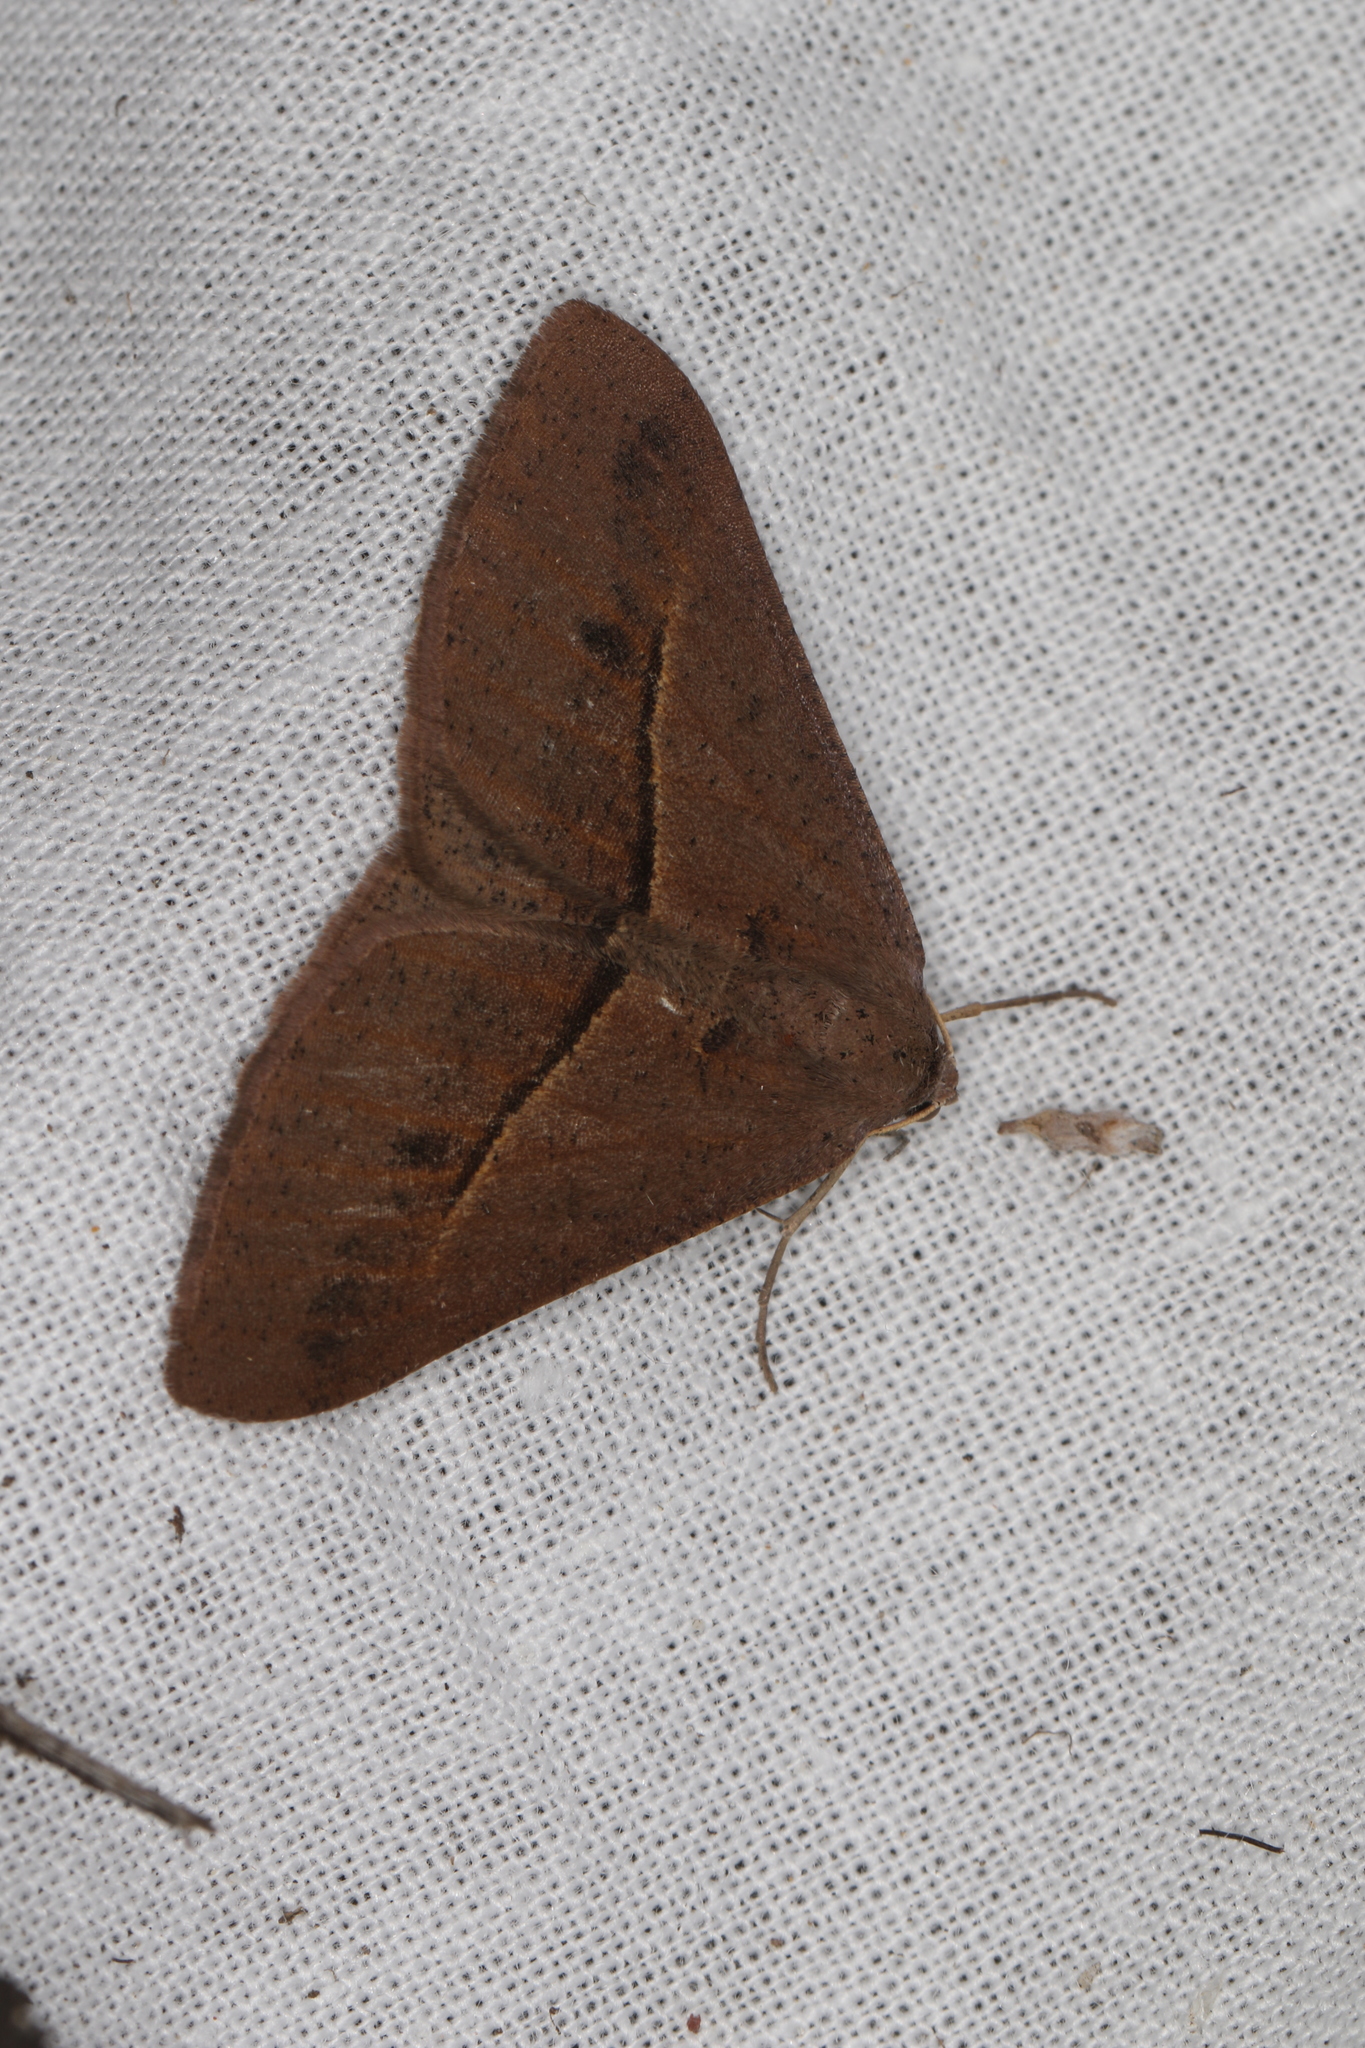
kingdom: Animalia
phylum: Arthropoda
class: Insecta
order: Lepidoptera
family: Geometridae
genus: Isturgia
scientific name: Isturgia
